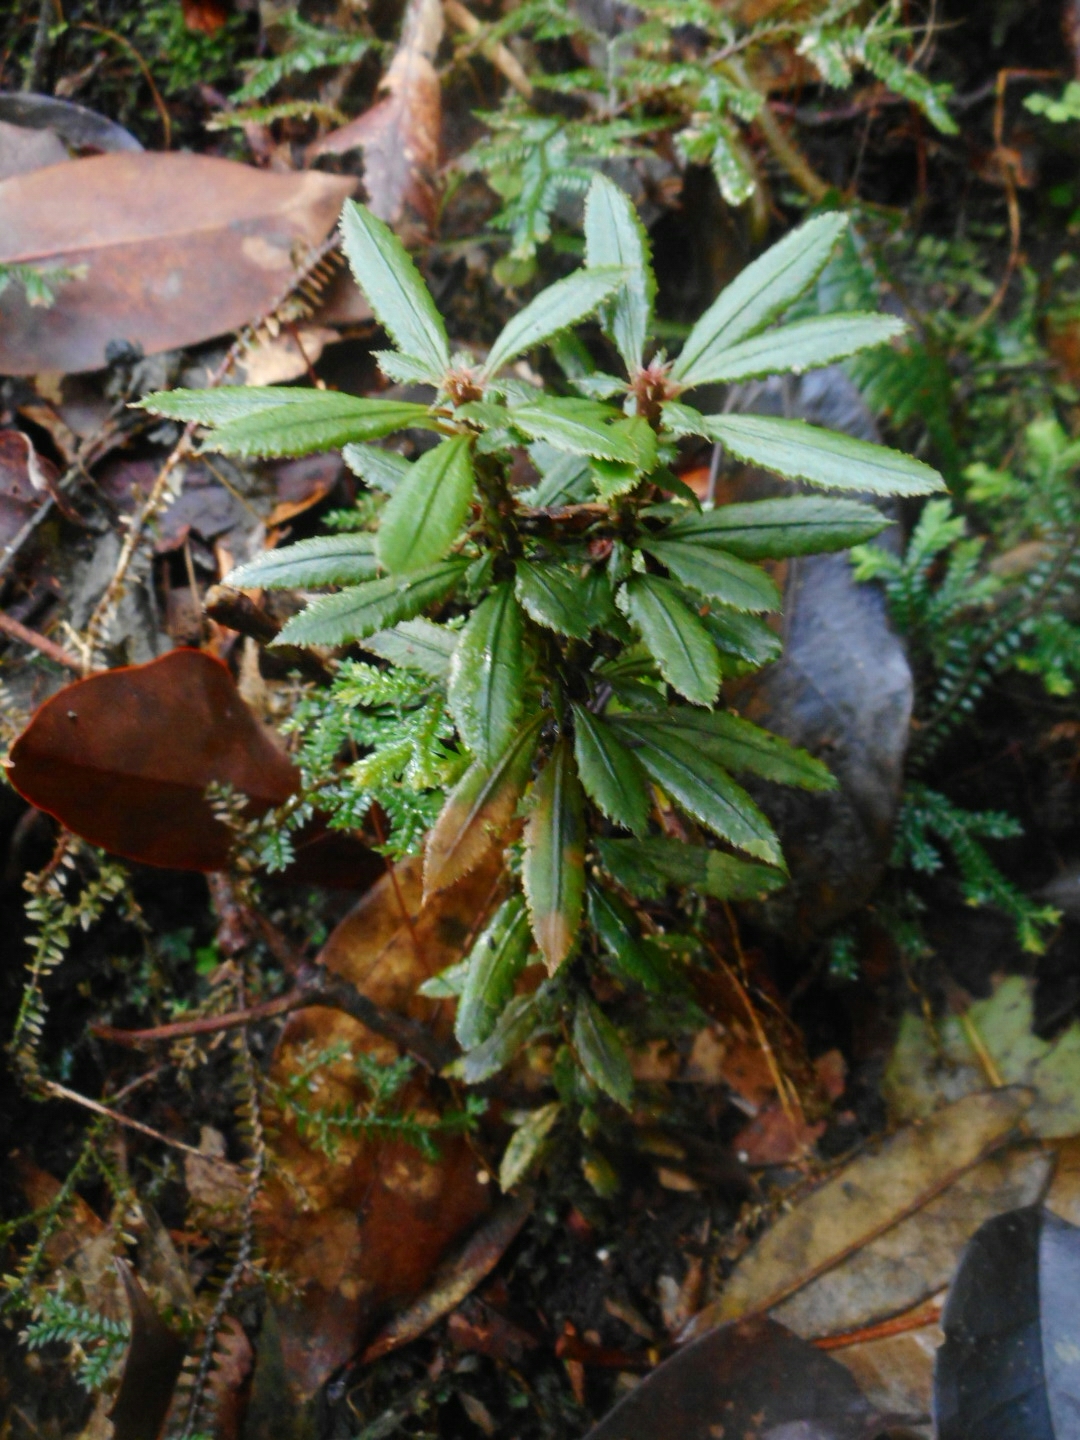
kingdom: Plantae
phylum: Tracheophyta
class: Lycopodiopsida
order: Lycopodiales
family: Lycopodiaceae
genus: Huperzia
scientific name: Huperzia javanica
